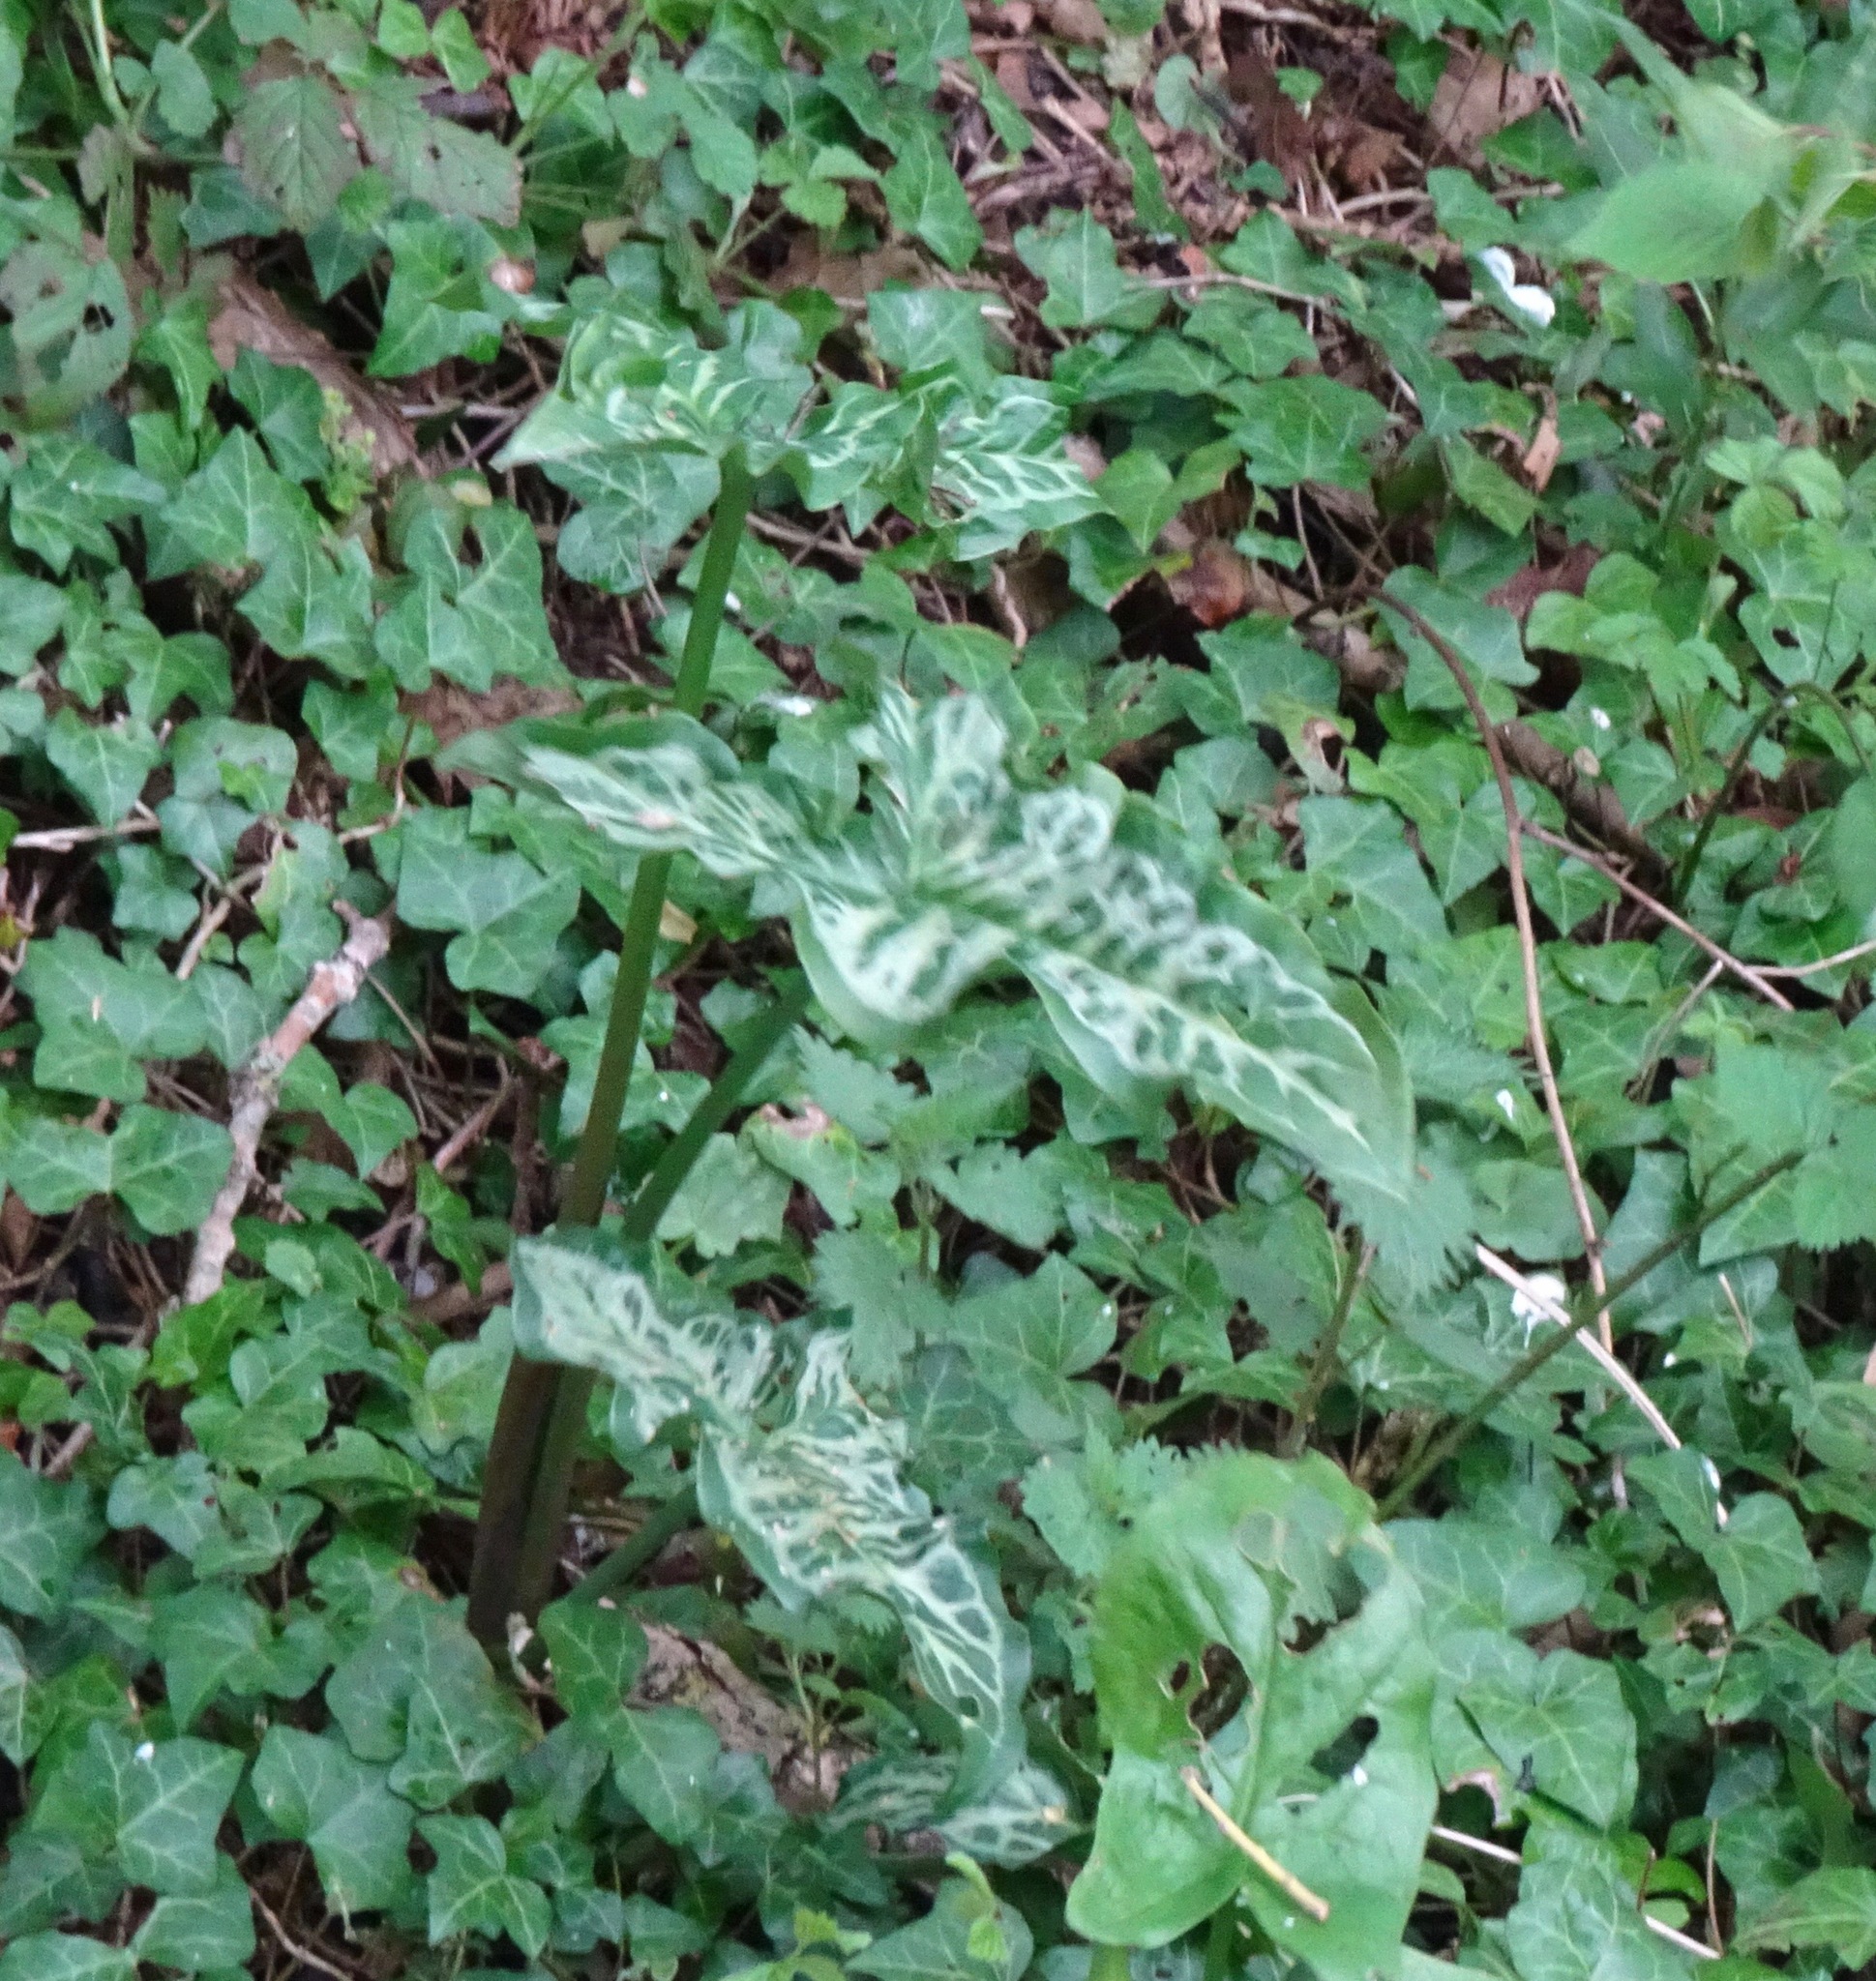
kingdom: Plantae
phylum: Tracheophyta
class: Liliopsida
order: Alismatales
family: Araceae
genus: Arum
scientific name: Arum italicum
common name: Italian lords-and-ladies
